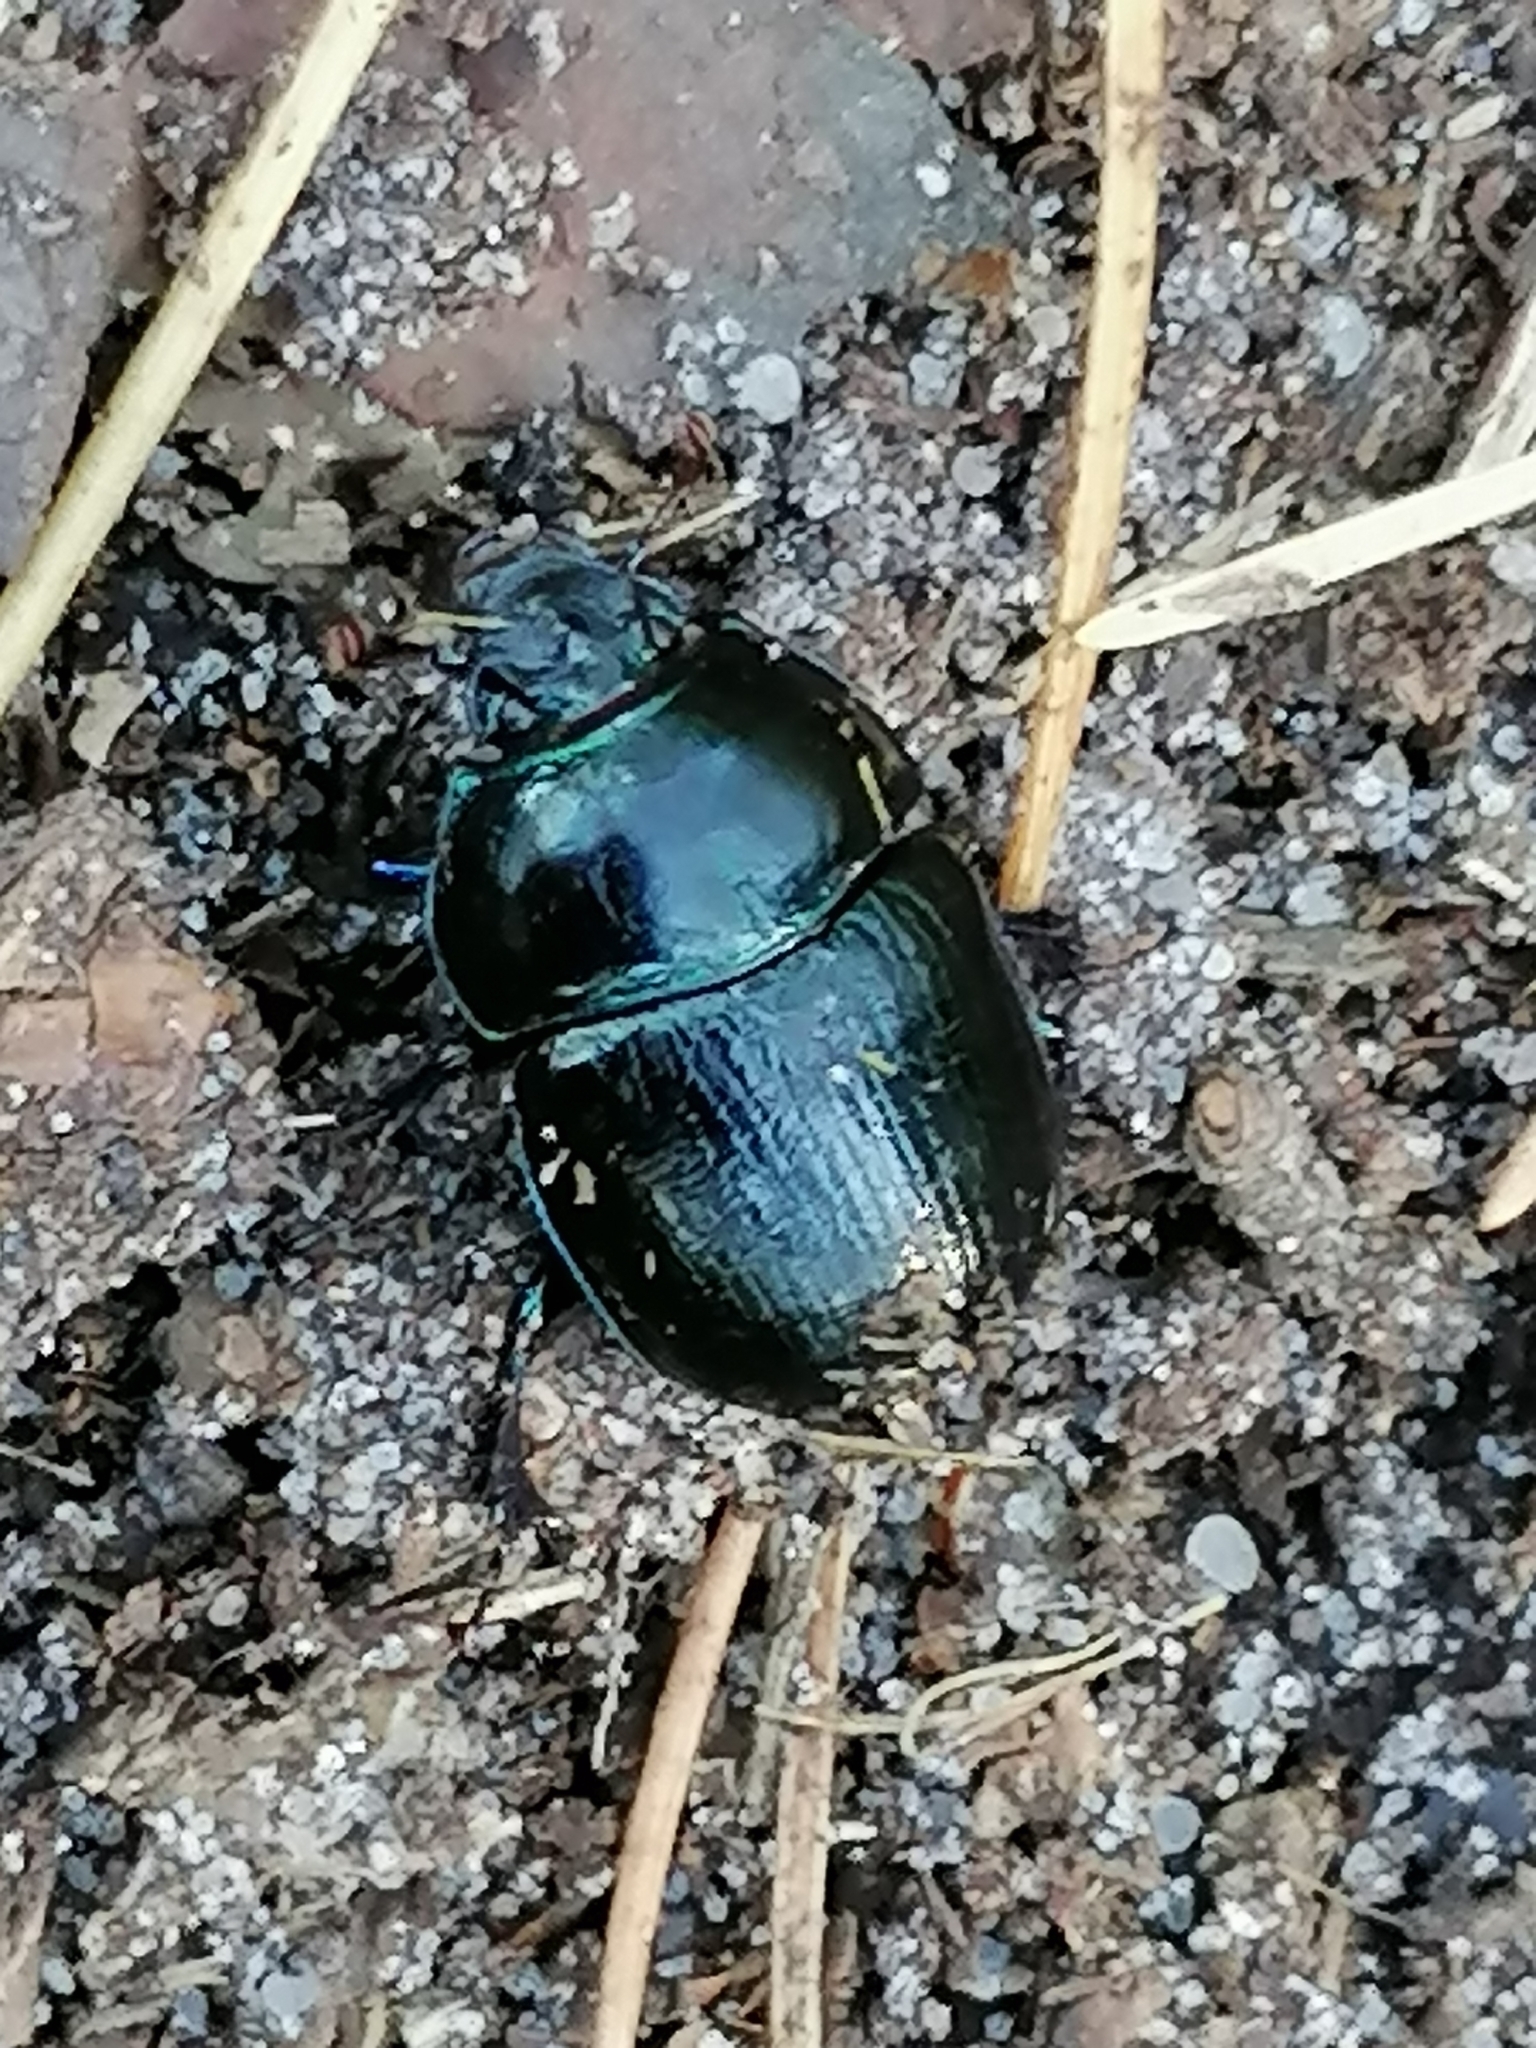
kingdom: Animalia
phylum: Arthropoda
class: Insecta
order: Coleoptera
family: Geotrupidae
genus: Anoplotrupes
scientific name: Anoplotrupes stercorosus
